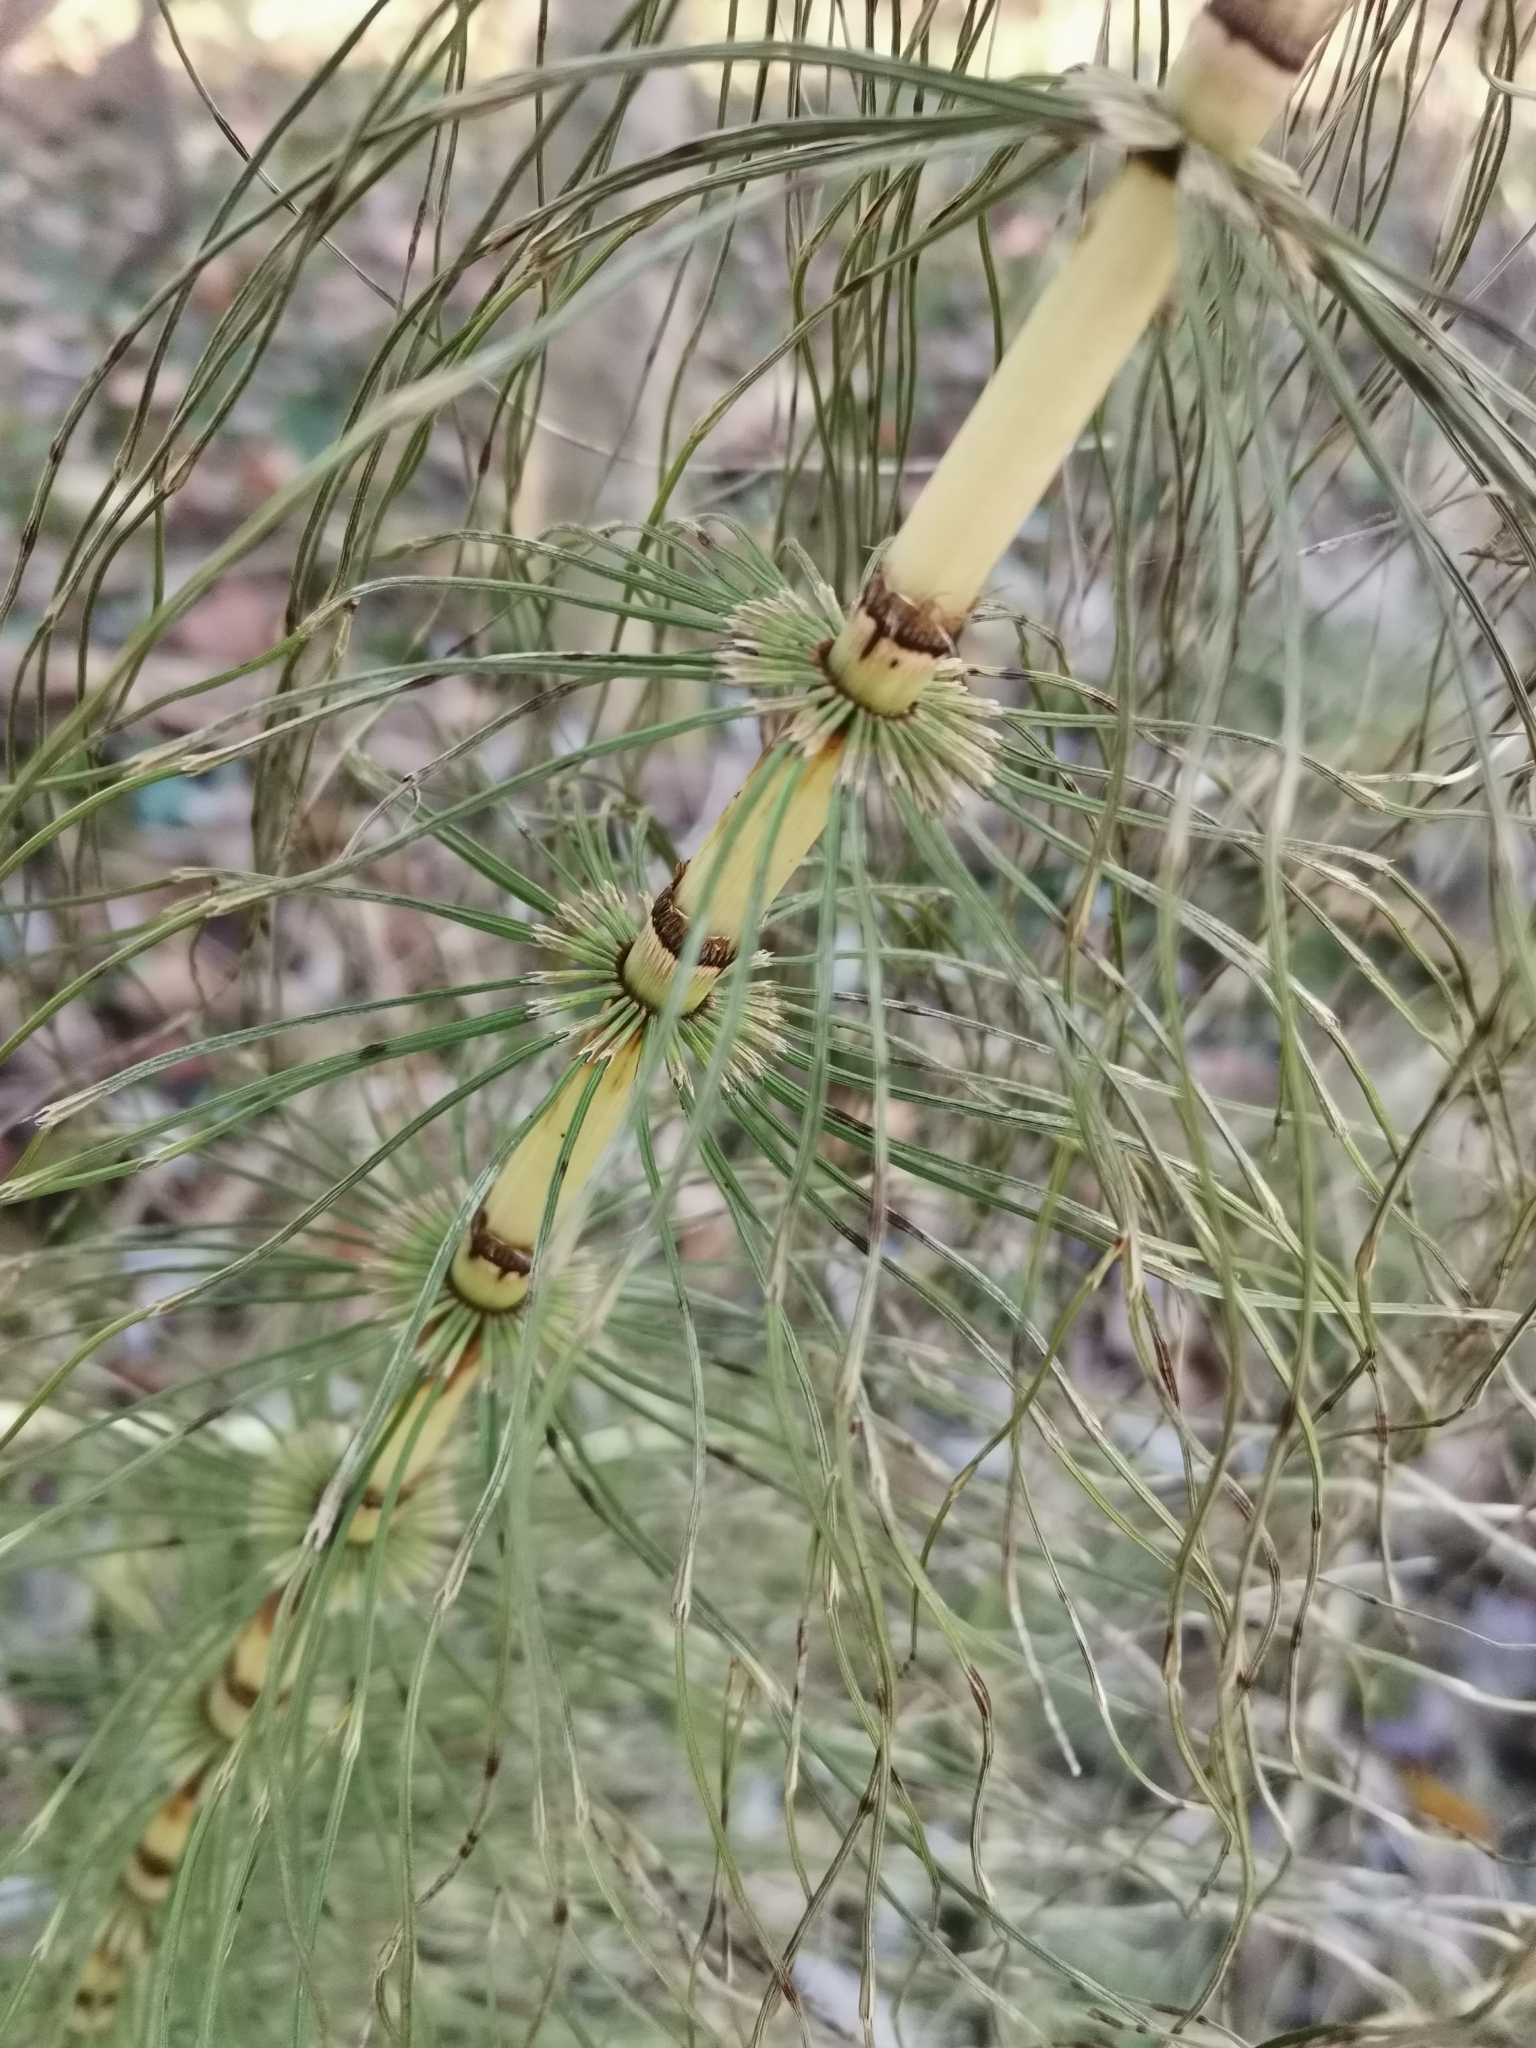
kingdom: Plantae
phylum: Tracheophyta
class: Polypodiopsida
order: Equisetales
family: Equisetaceae
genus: Equisetum
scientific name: Equisetum telmateia
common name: Great horsetail
